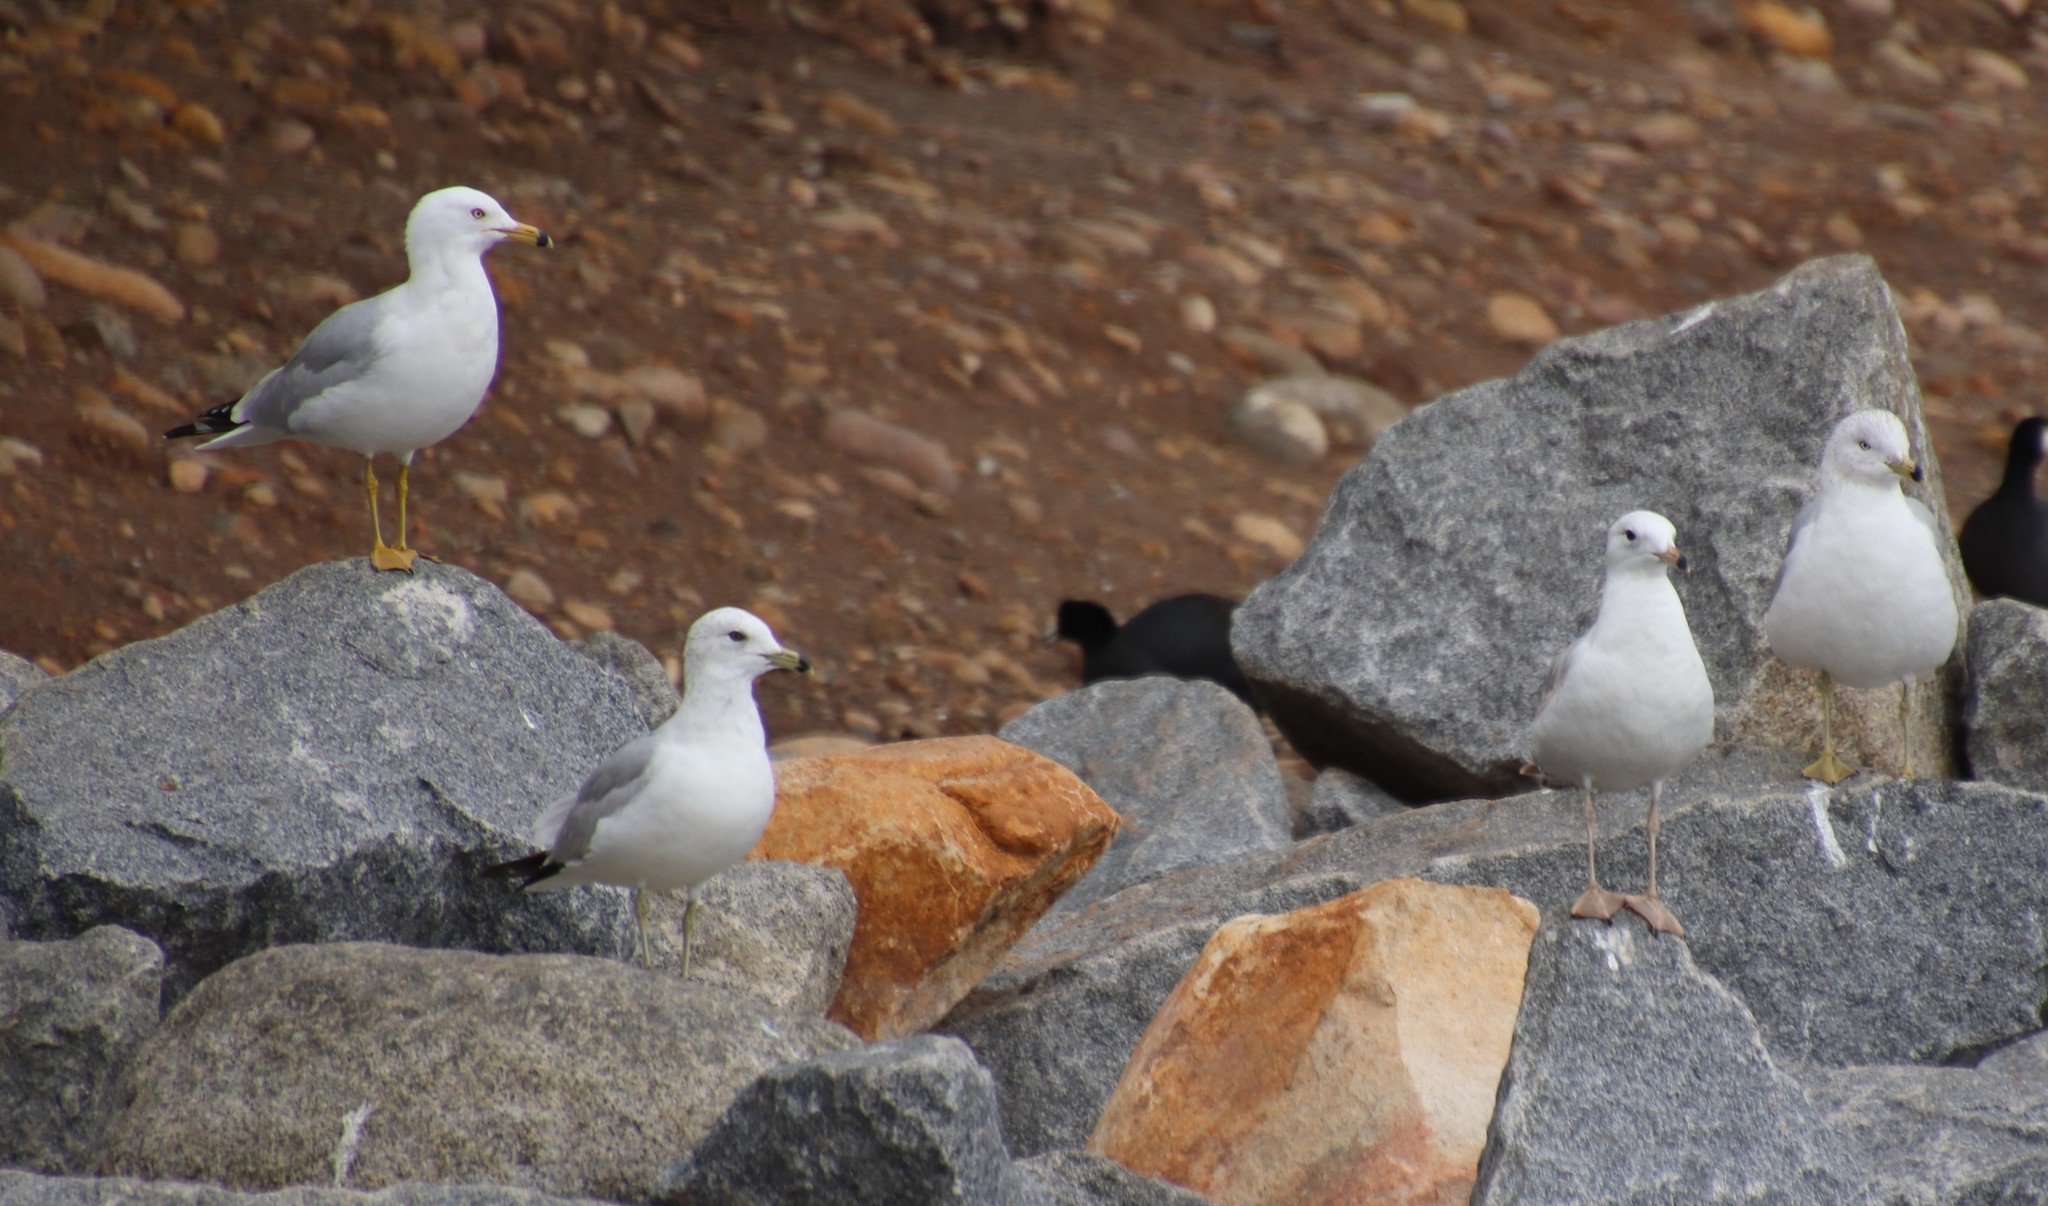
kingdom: Animalia
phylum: Chordata
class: Aves
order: Charadriiformes
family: Laridae
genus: Larus
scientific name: Larus delawarensis
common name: Ring-billed gull
